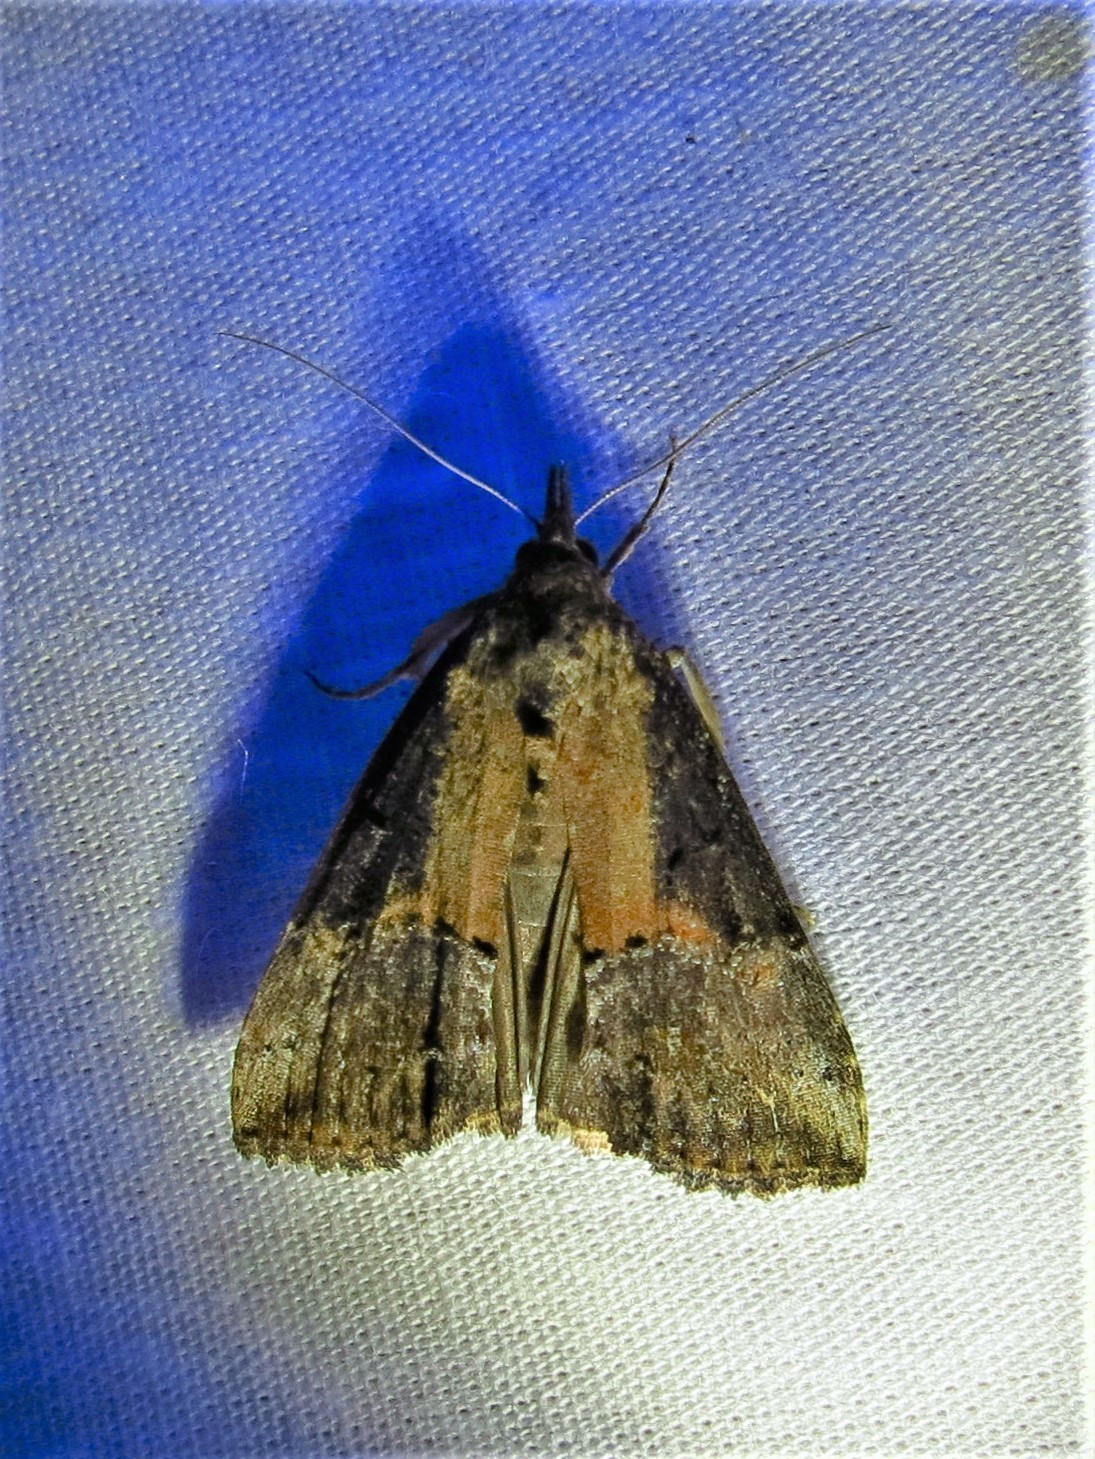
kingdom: Animalia
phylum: Arthropoda
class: Insecta
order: Lepidoptera
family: Erebidae
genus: Hypena
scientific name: Hypena scabra
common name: Green cloverworm
